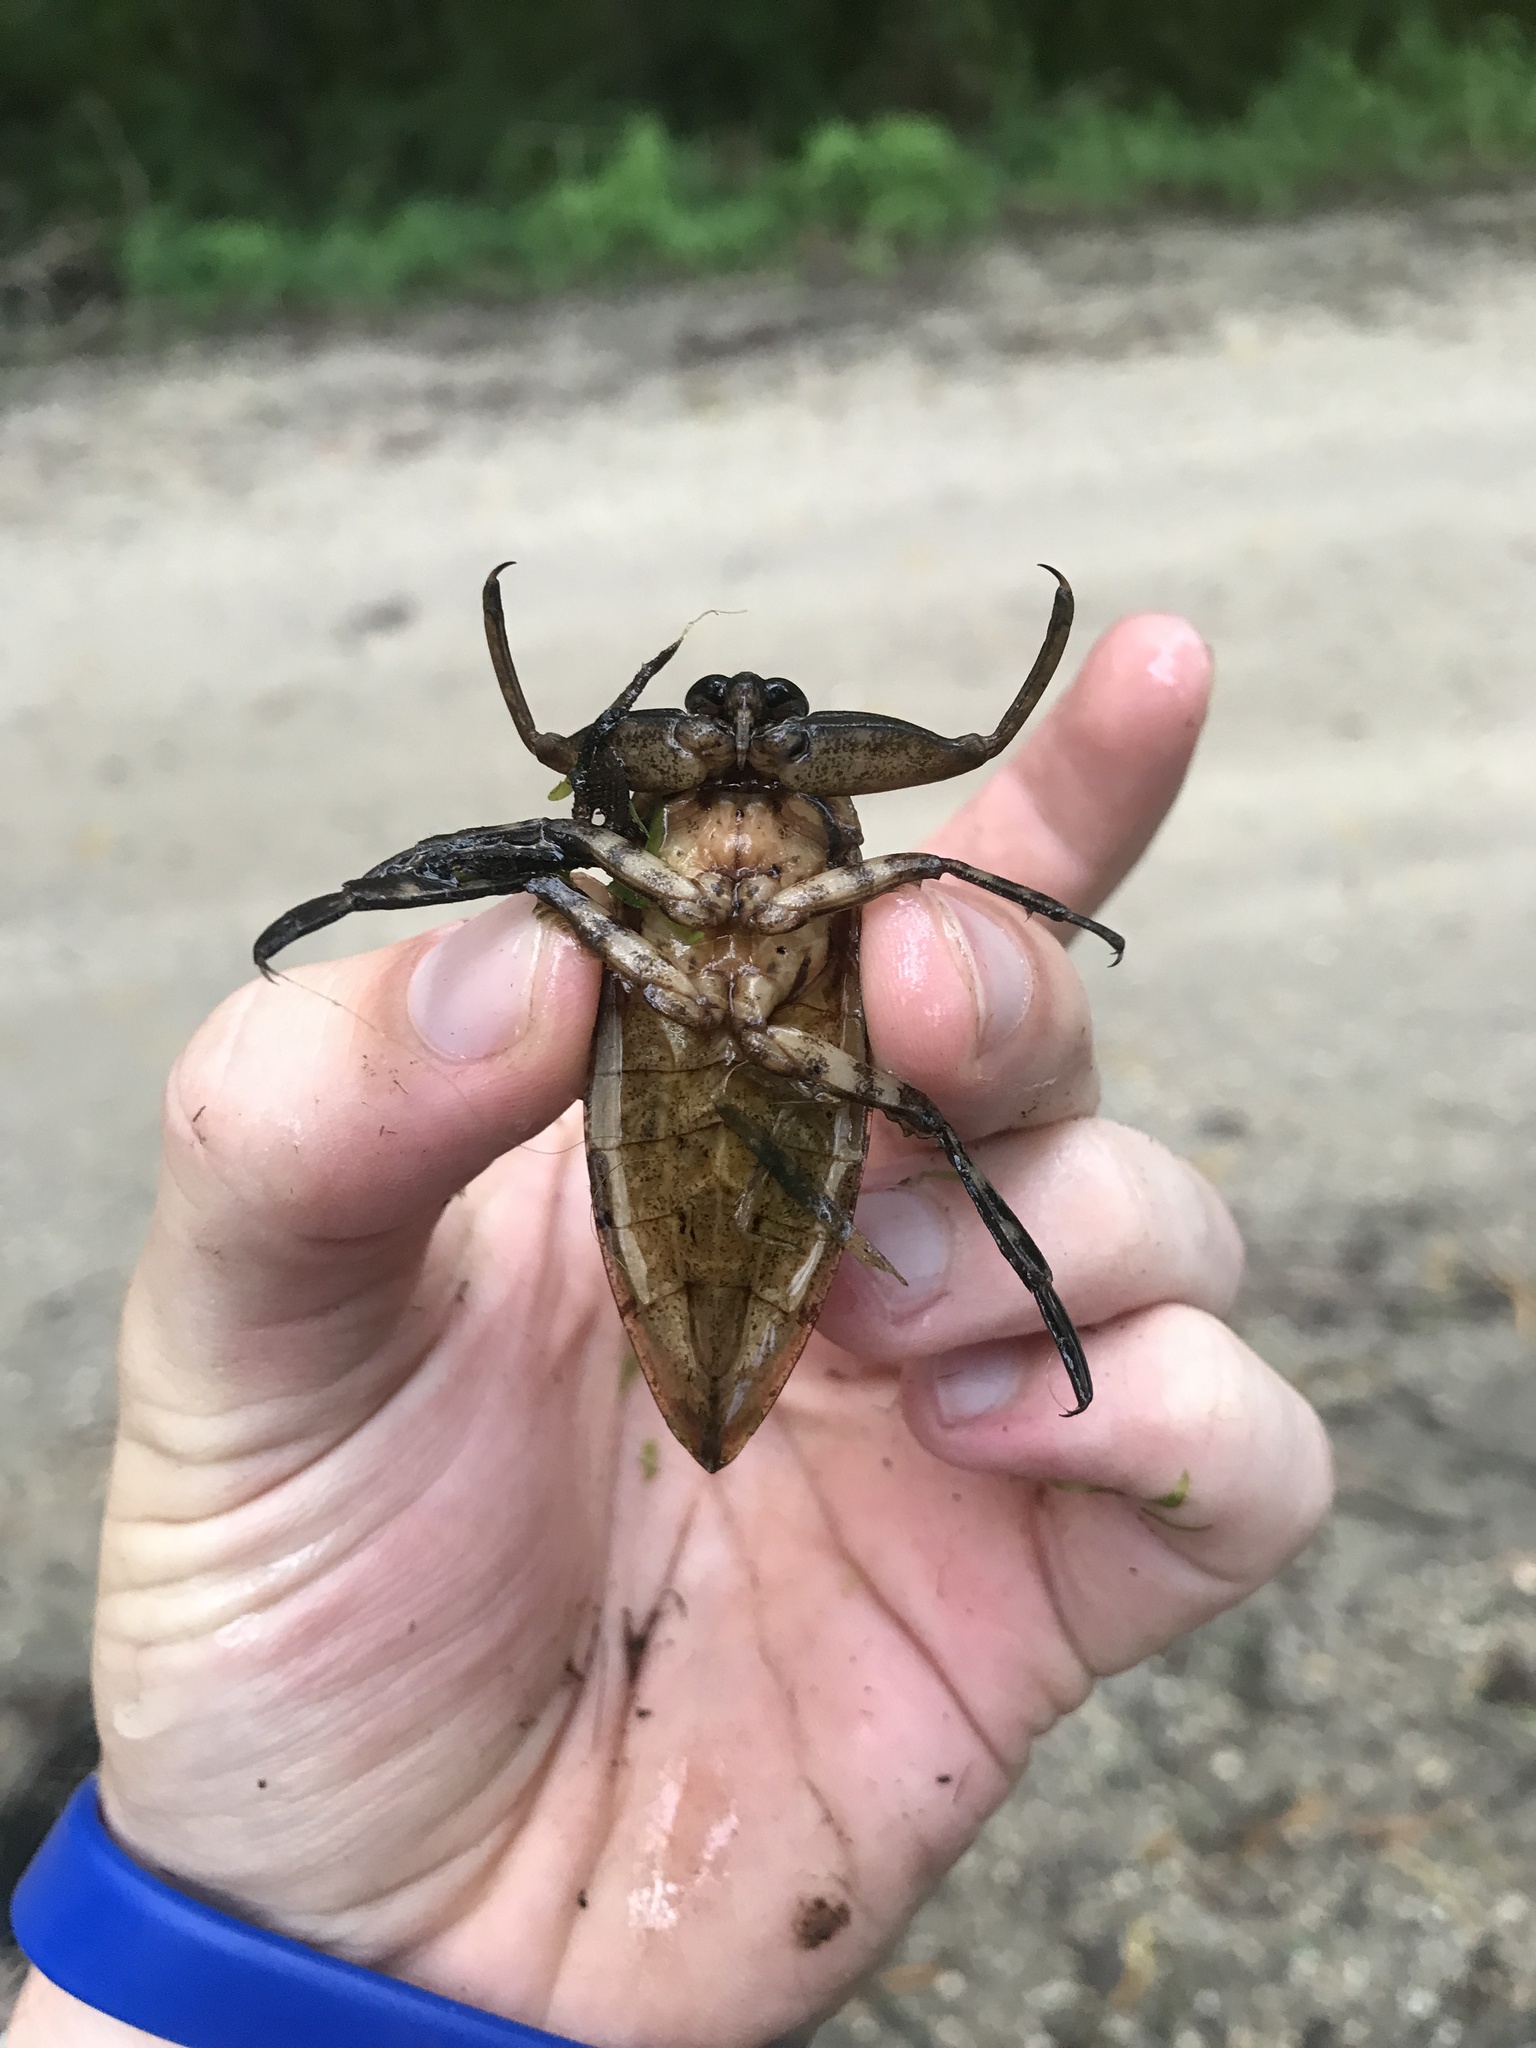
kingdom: Animalia
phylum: Arthropoda
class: Insecta
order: Hemiptera
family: Belostomatidae
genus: Lethocerus
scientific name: Lethocerus uhleri
